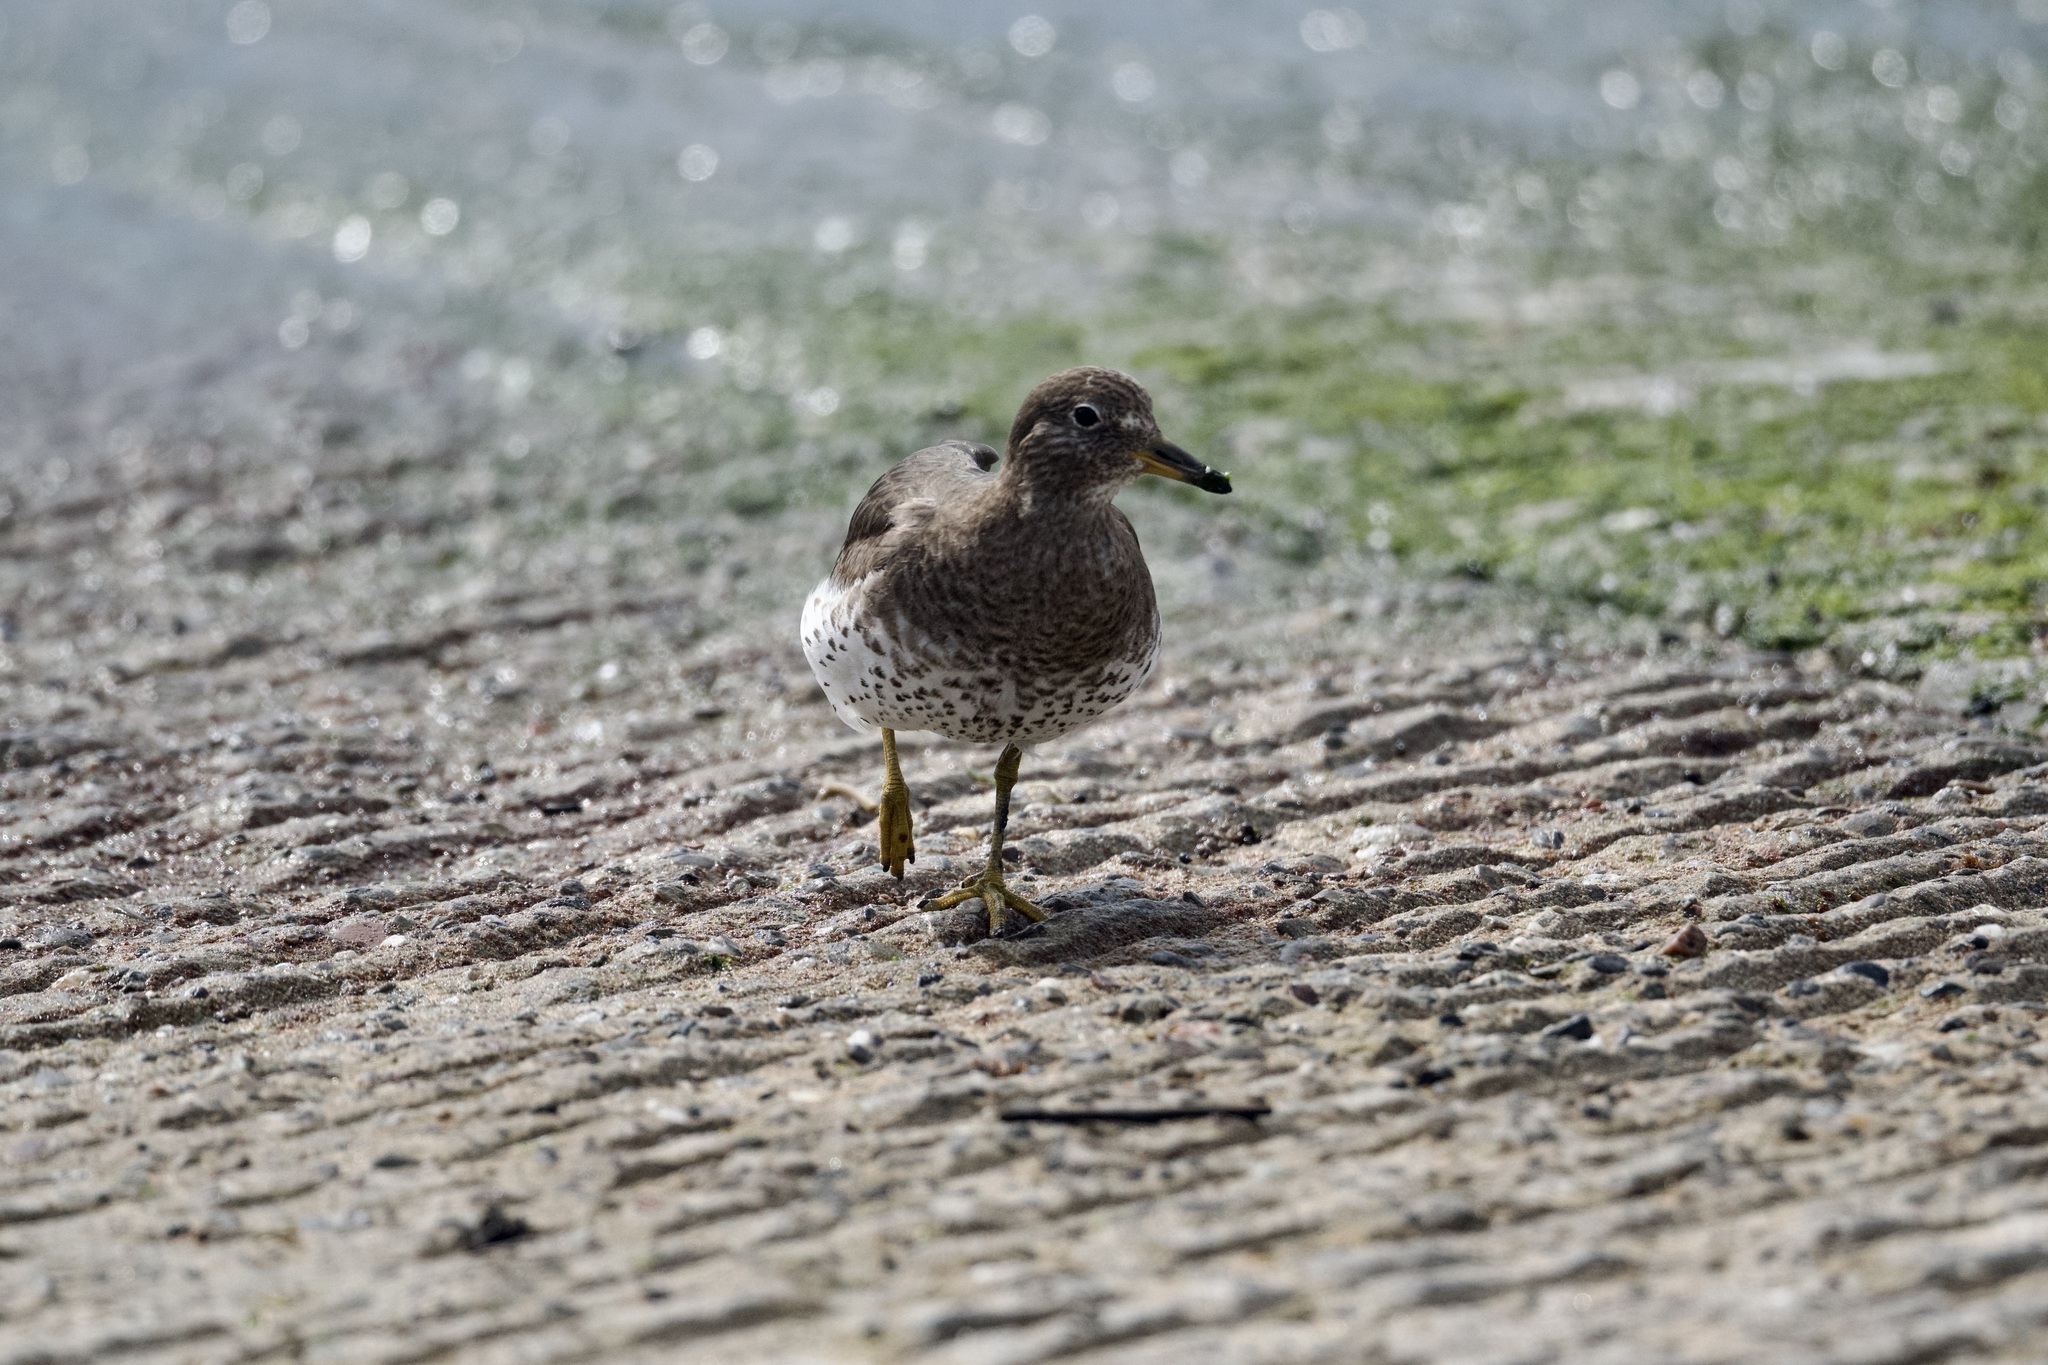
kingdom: Animalia
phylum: Chordata
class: Aves
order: Charadriiformes
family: Scolopacidae
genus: Calidris
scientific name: Calidris virgata
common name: Surfbird
